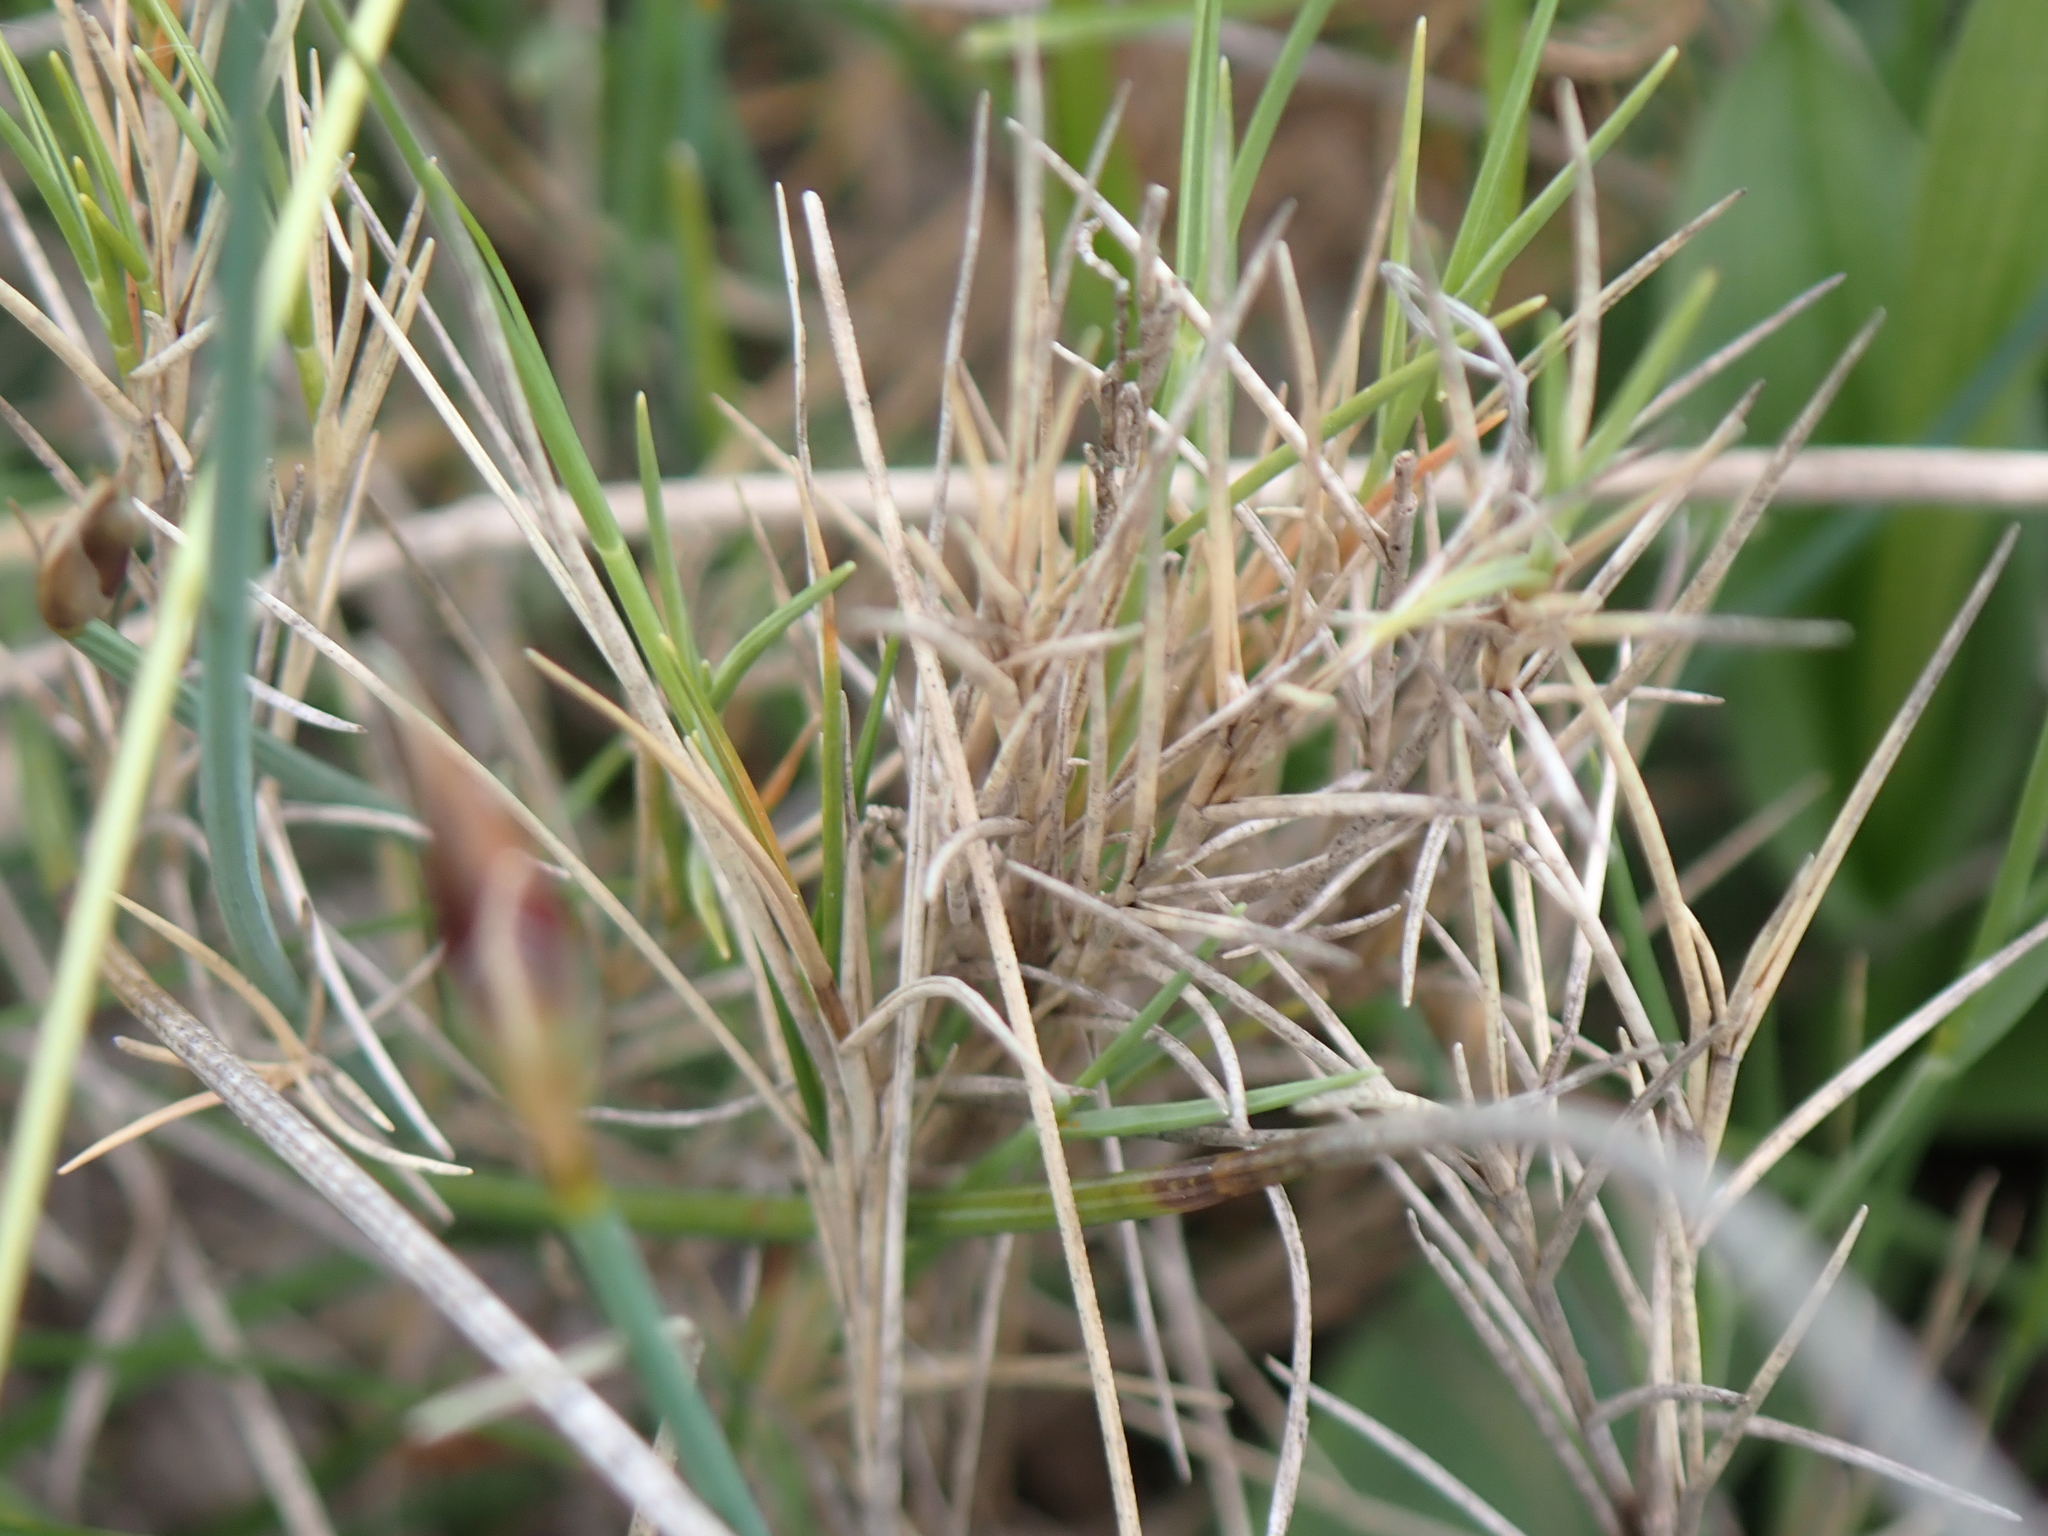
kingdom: Plantae
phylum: Tracheophyta
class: Liliopsida
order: Poales
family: Poaceae
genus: Brachypodium
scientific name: Brachypodium retusum
